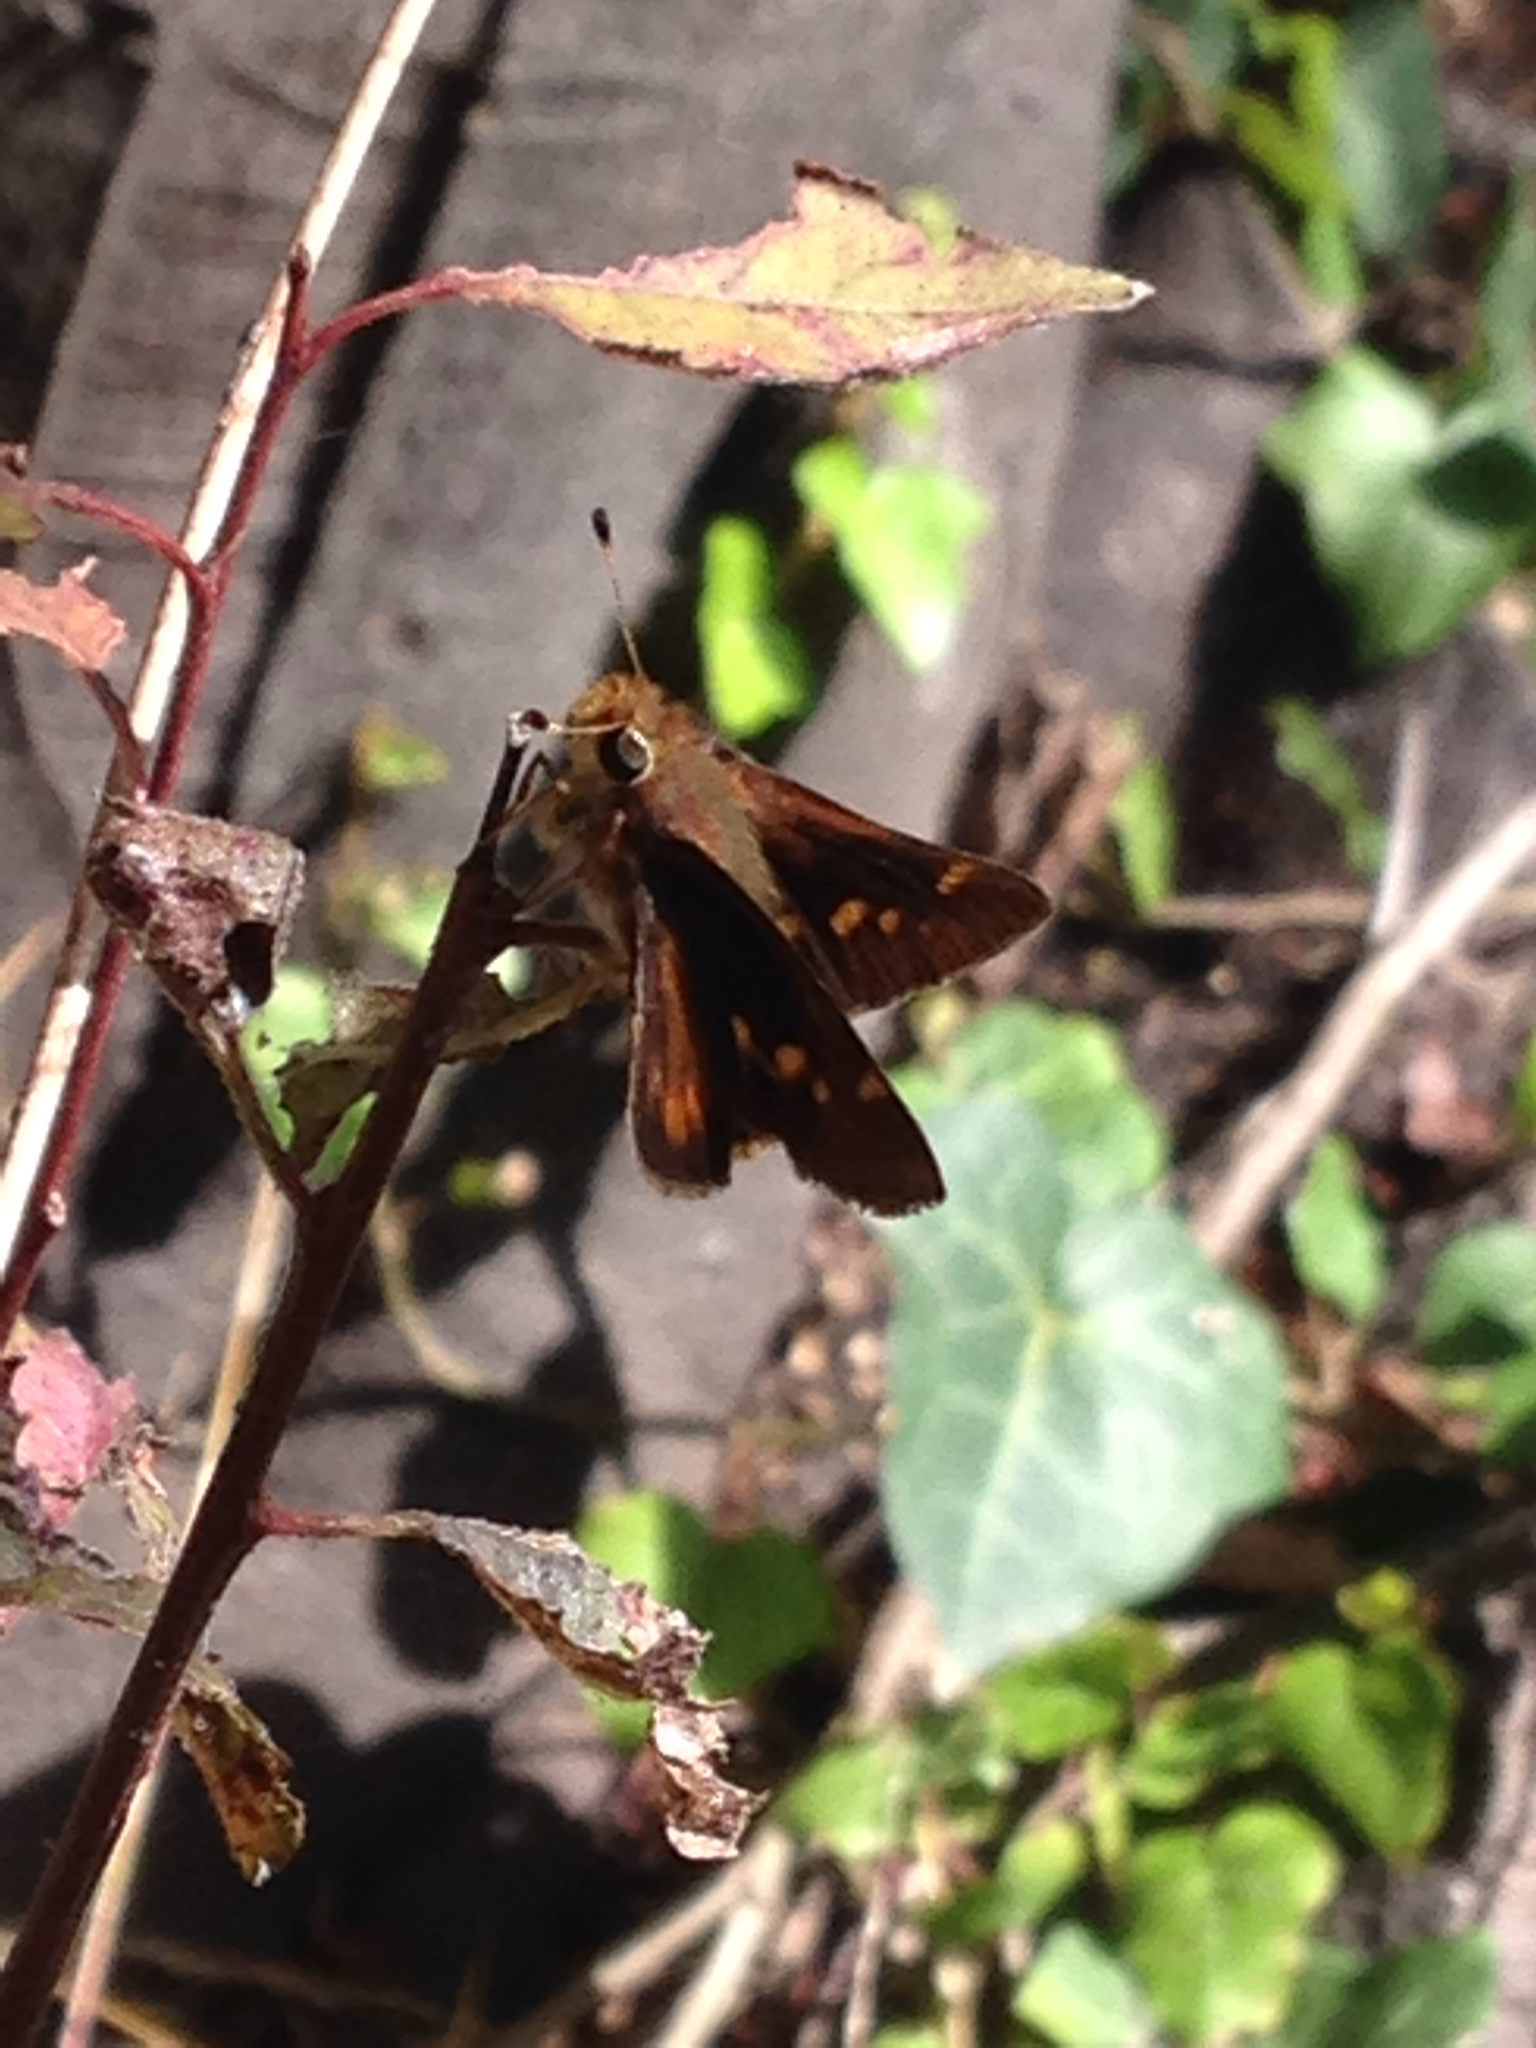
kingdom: Animalia
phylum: Arthropoda
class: Insecta
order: Lepidoptera
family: Hesperiidae
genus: Lon
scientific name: Lon melane
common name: Umber skipper
